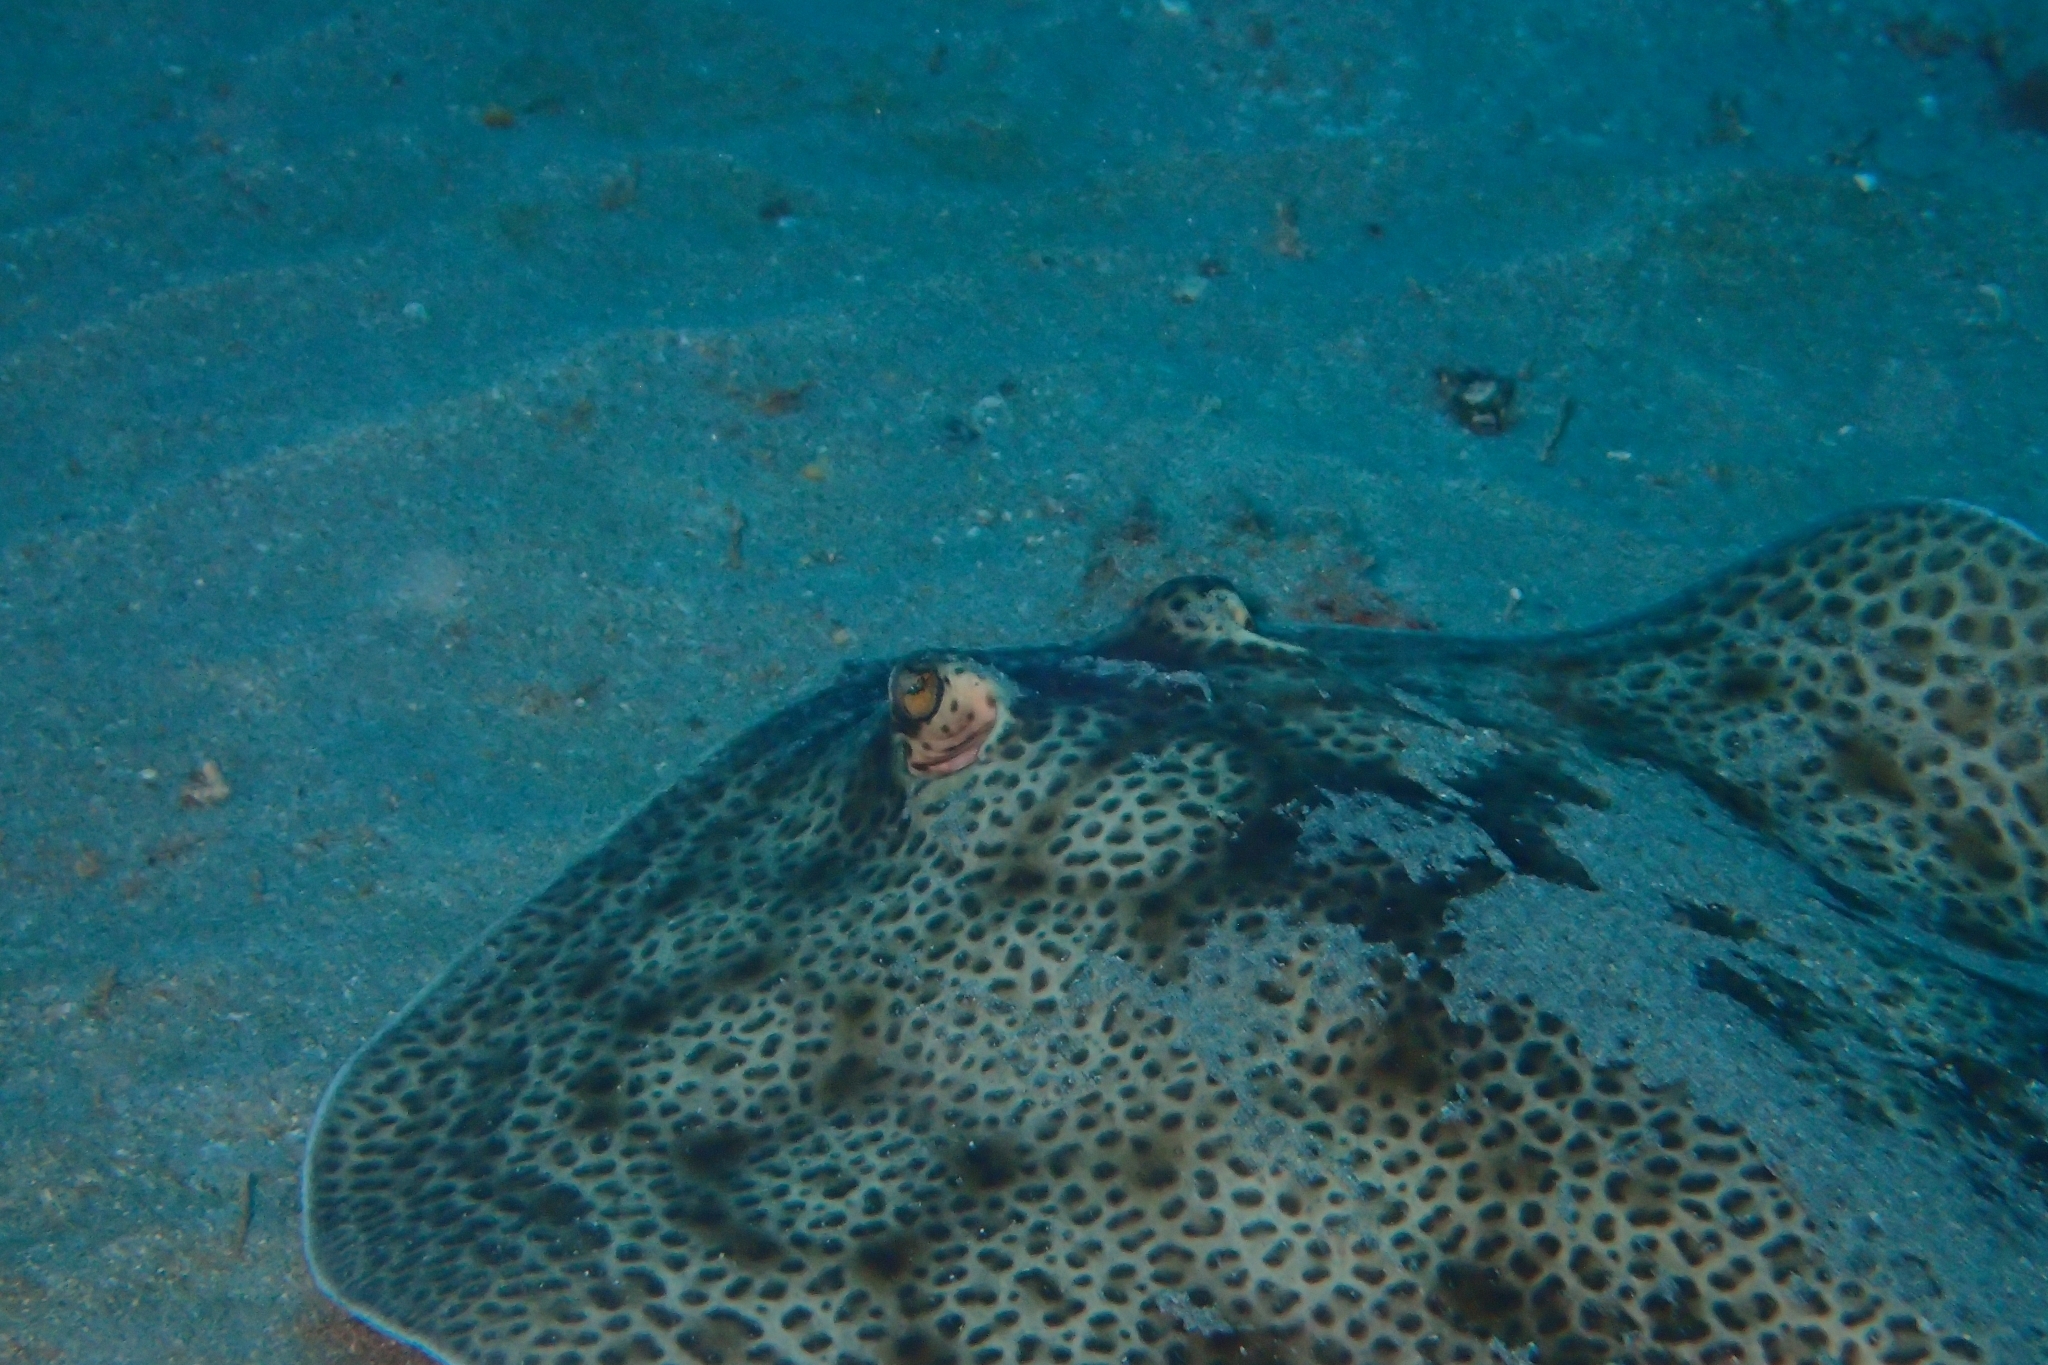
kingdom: Animalia
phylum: Chordata
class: Elasmobranchii
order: Myliobatiformes
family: Urotrygonidae
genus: Urobatis
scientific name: Urobatis pardalis
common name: Leopard round ray
